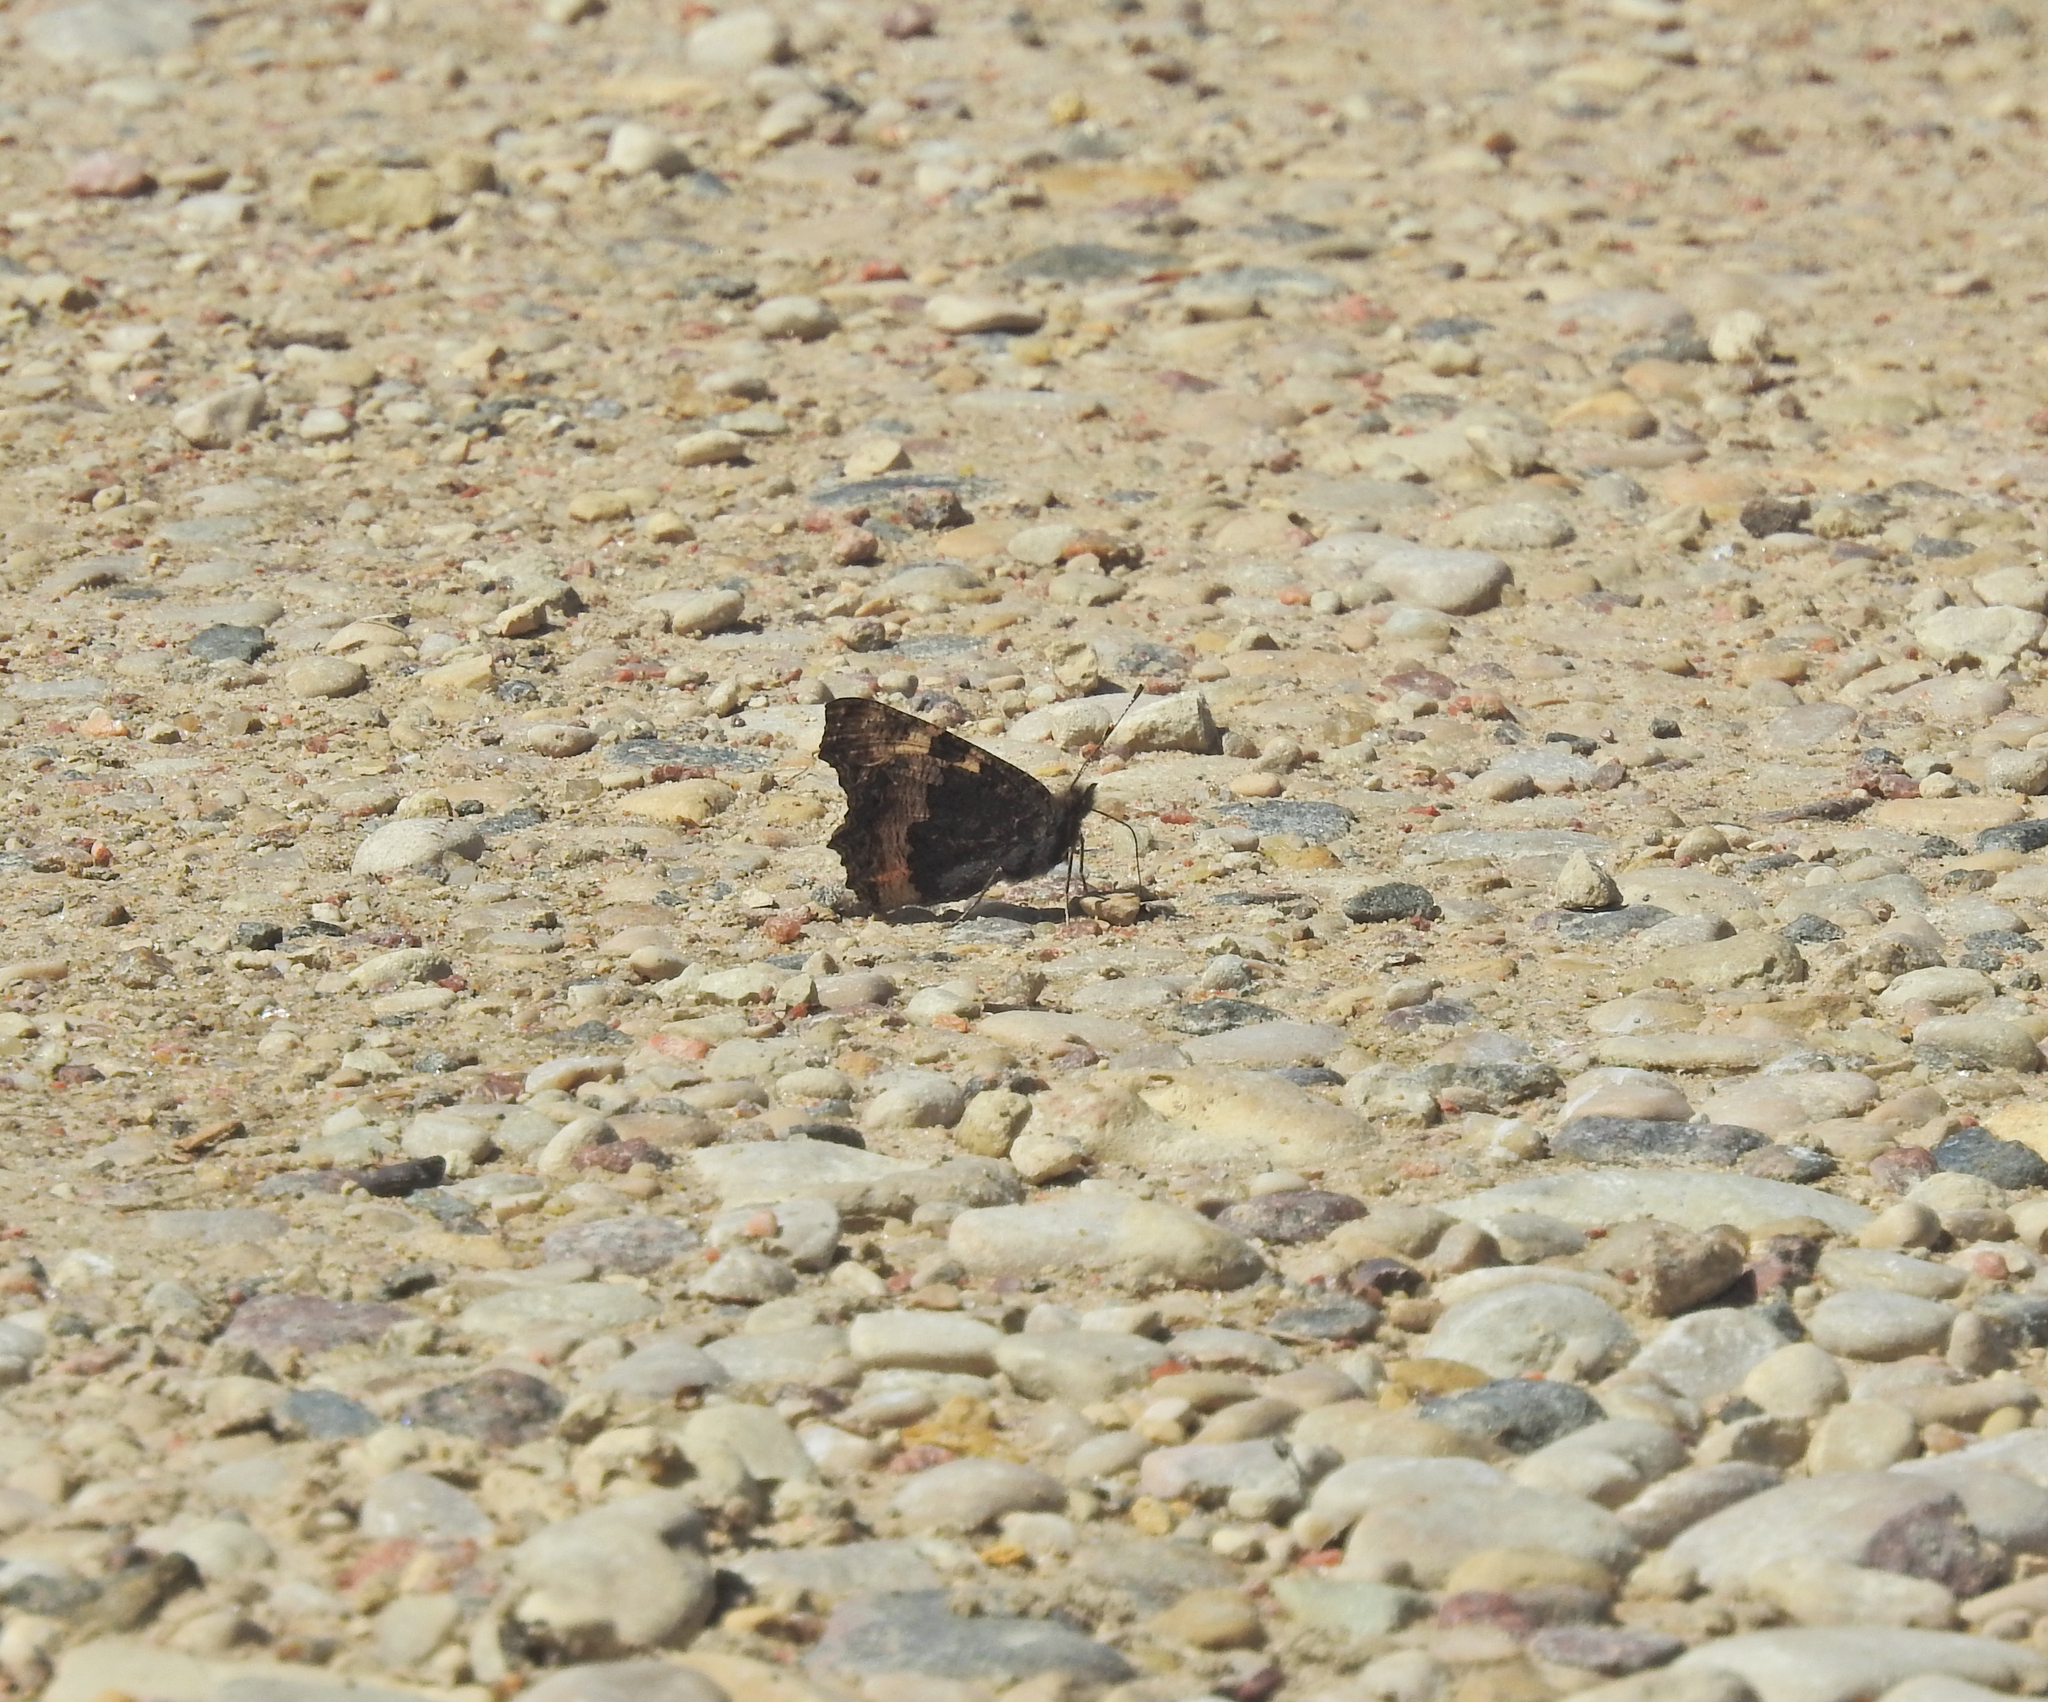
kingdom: Animalia
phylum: Arthropoda
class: Insecta
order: Lepidoptera
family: Nymphalidae
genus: Aglais
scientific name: Aglais urticae
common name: Small tortoiseshell
